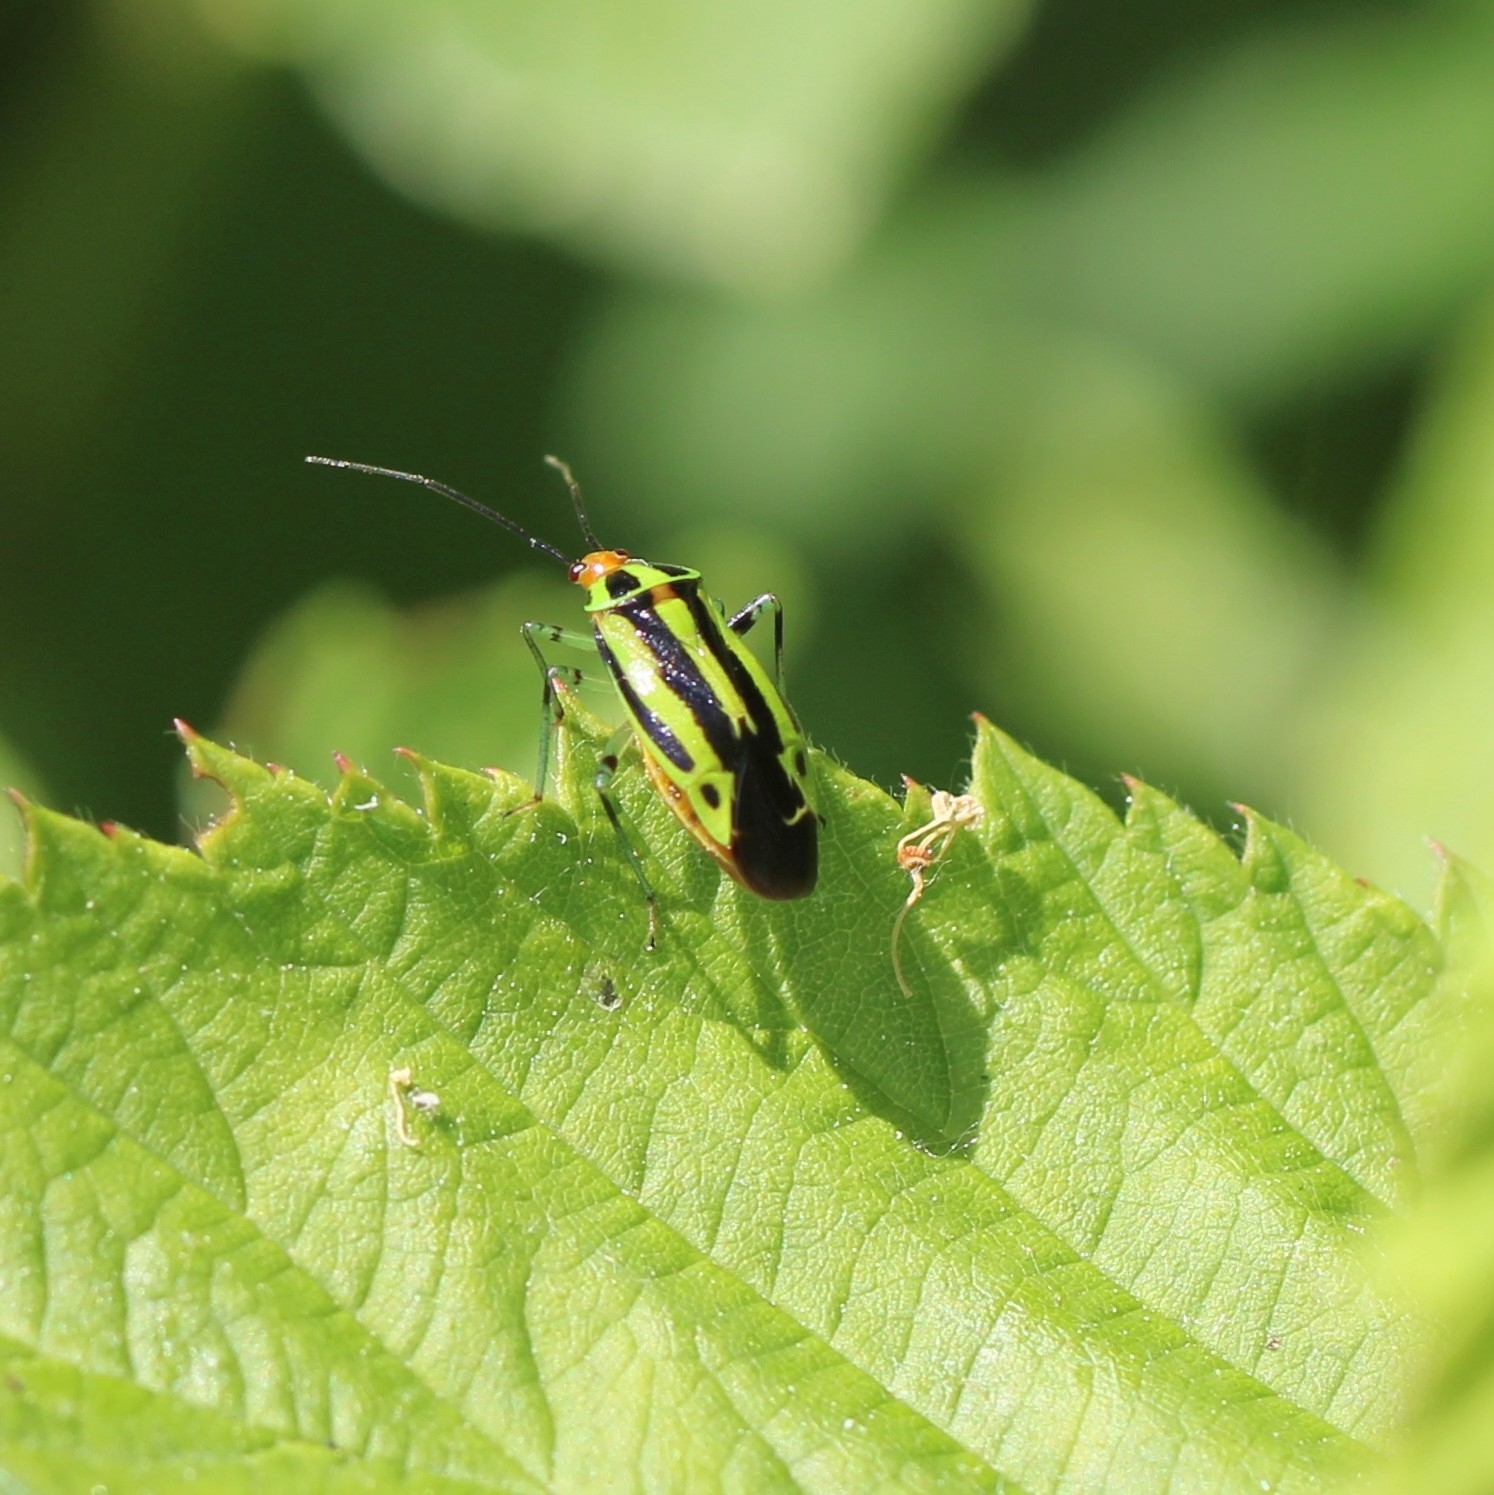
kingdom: Animalia
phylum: Arthropoda
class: Insecta
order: Hemiptera
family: Miridae
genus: Poecilocapsus
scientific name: Poecilocapsus lineatus
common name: Four-lined plant bug
